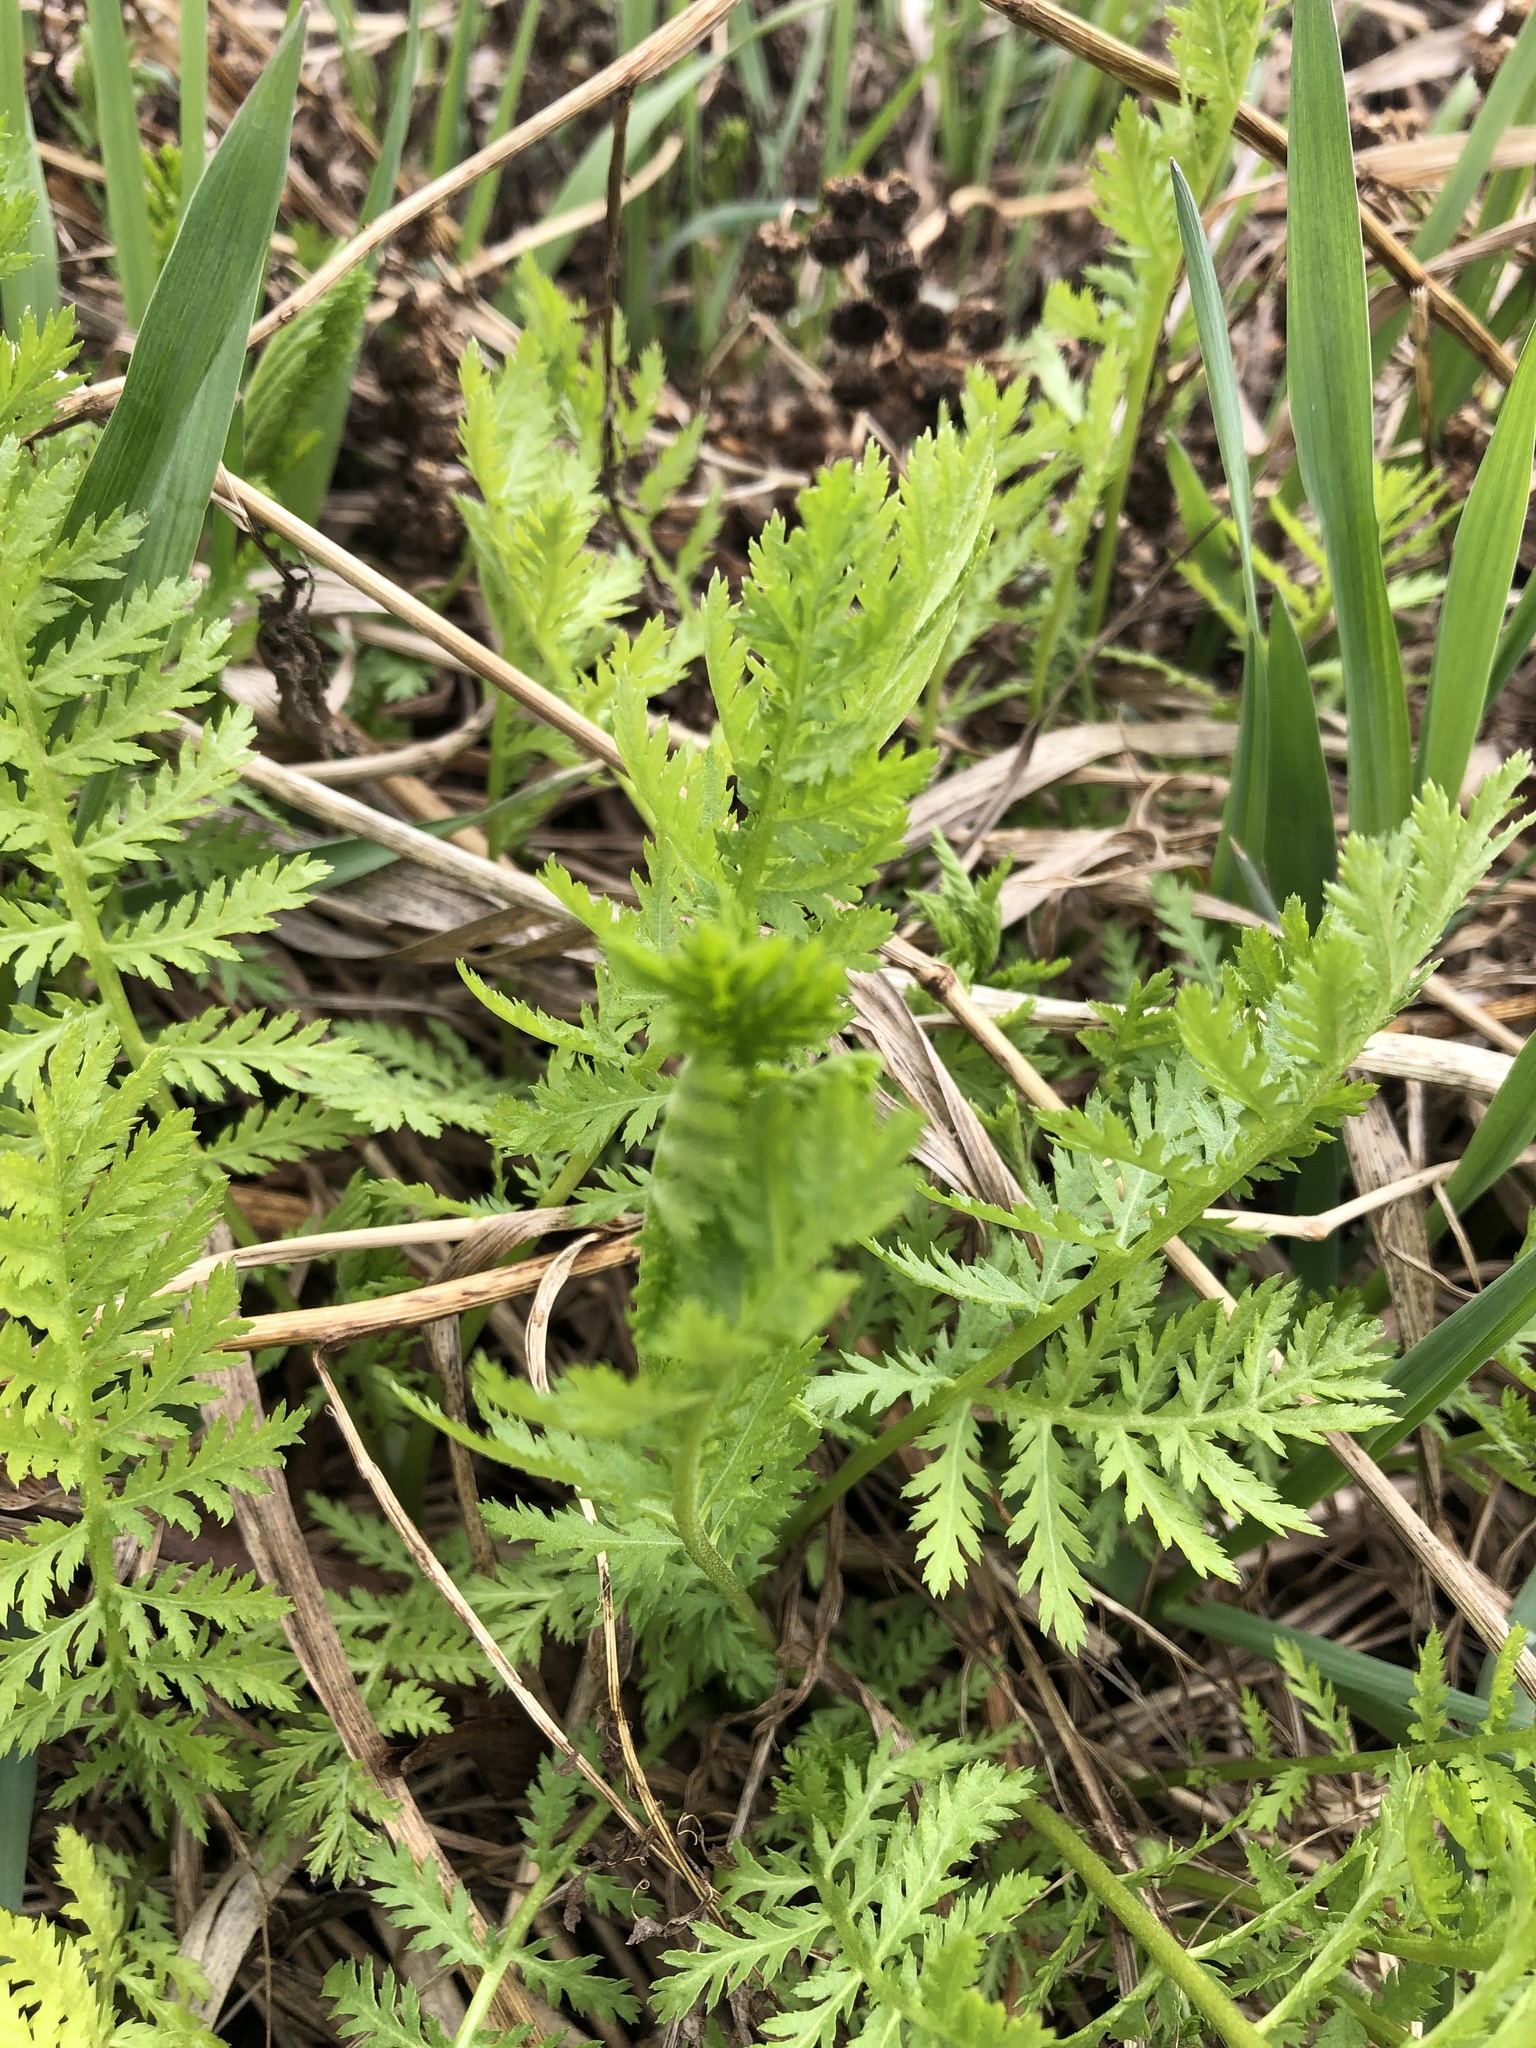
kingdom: Plantae
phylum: Tracheophyta
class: Magnoliopsida
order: Asterales
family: Asteraceae
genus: Tanacetum
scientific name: Tanacetum vulgare
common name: Common tansy
